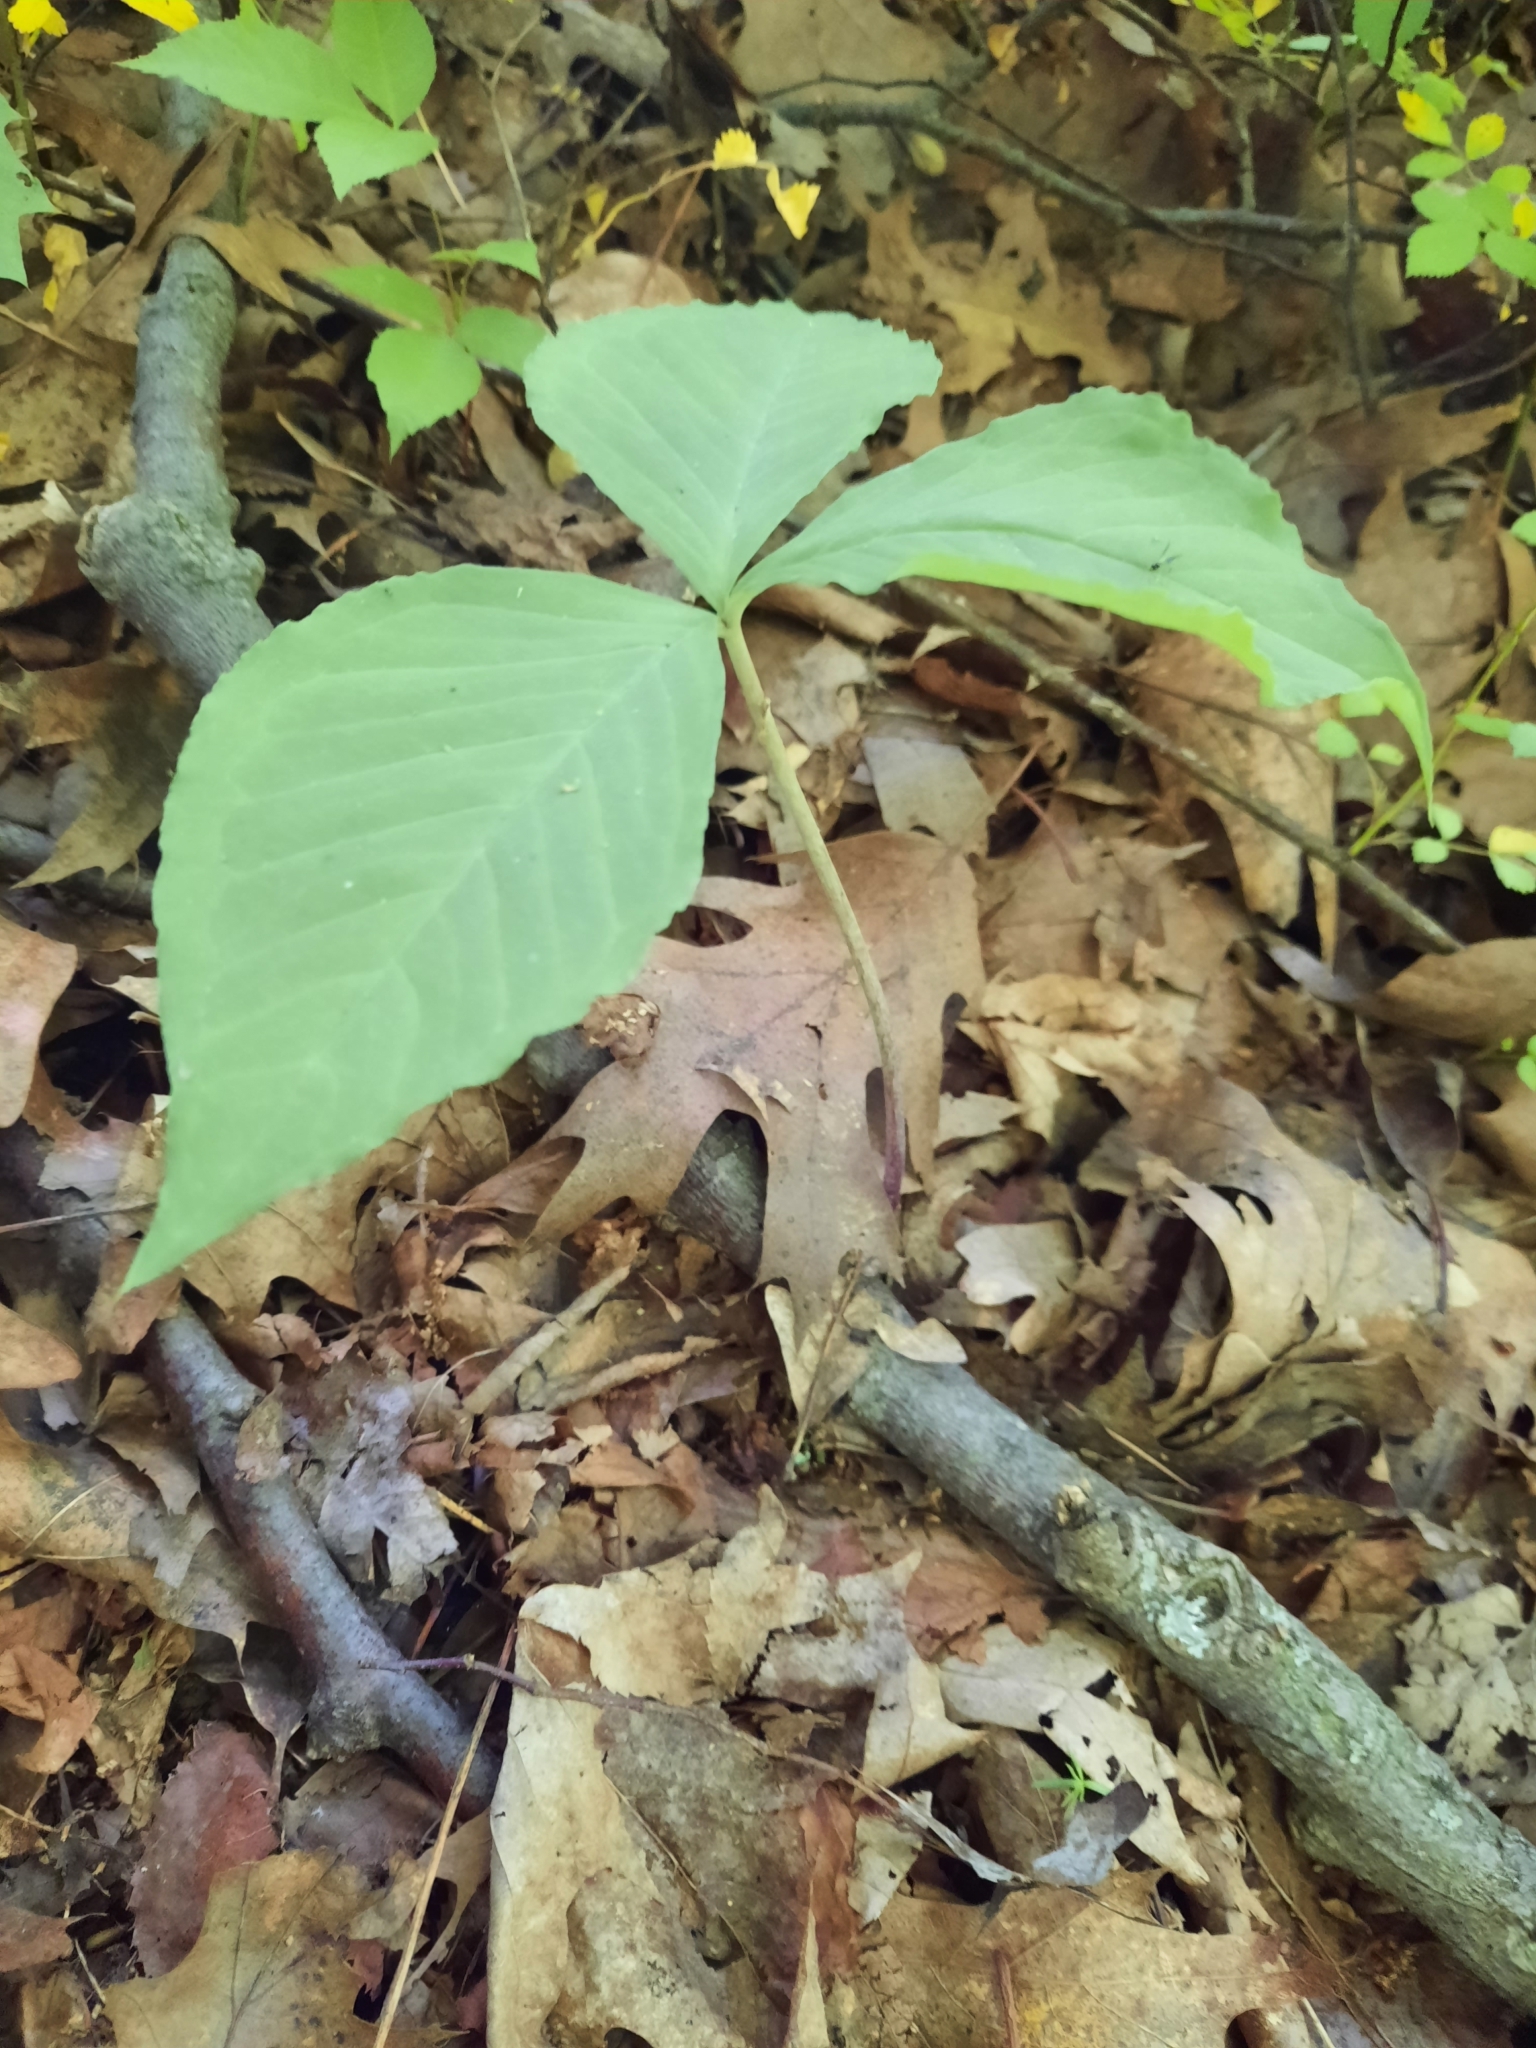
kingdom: Plantae
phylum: Tracheophyta
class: Liliopsida
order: Alismatales
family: Araceae
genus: Arisaema
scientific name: Arisaema triphyllum
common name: Jack-in-the-pulpit
